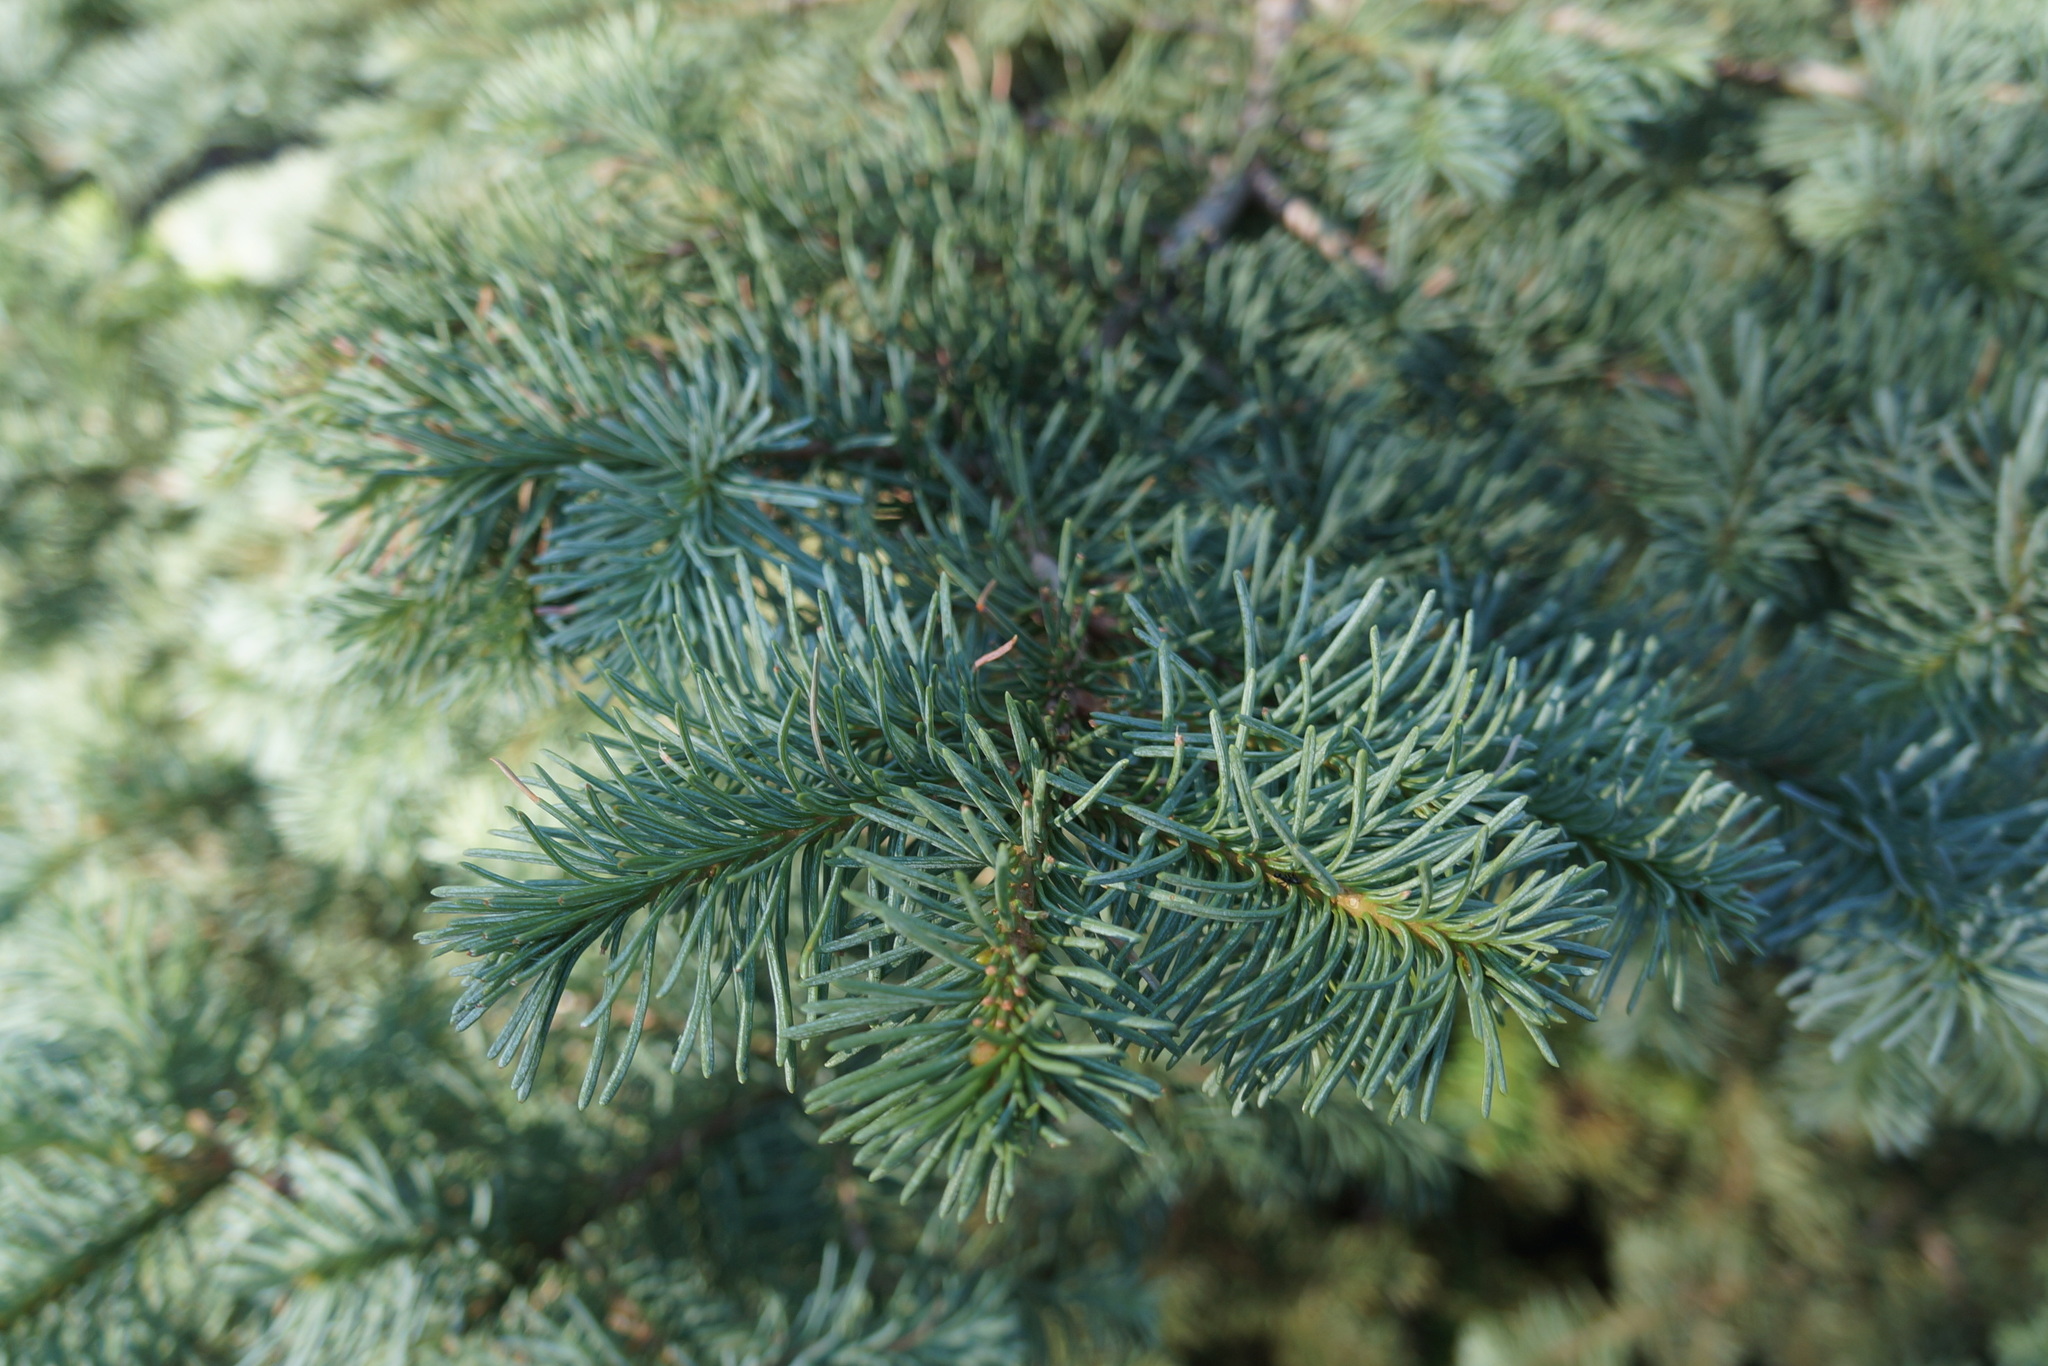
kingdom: Plantae
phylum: Tracheophyta
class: Pinopsida
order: Pinales
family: Pinaceae
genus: Abies
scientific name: Abies magnifica bis
